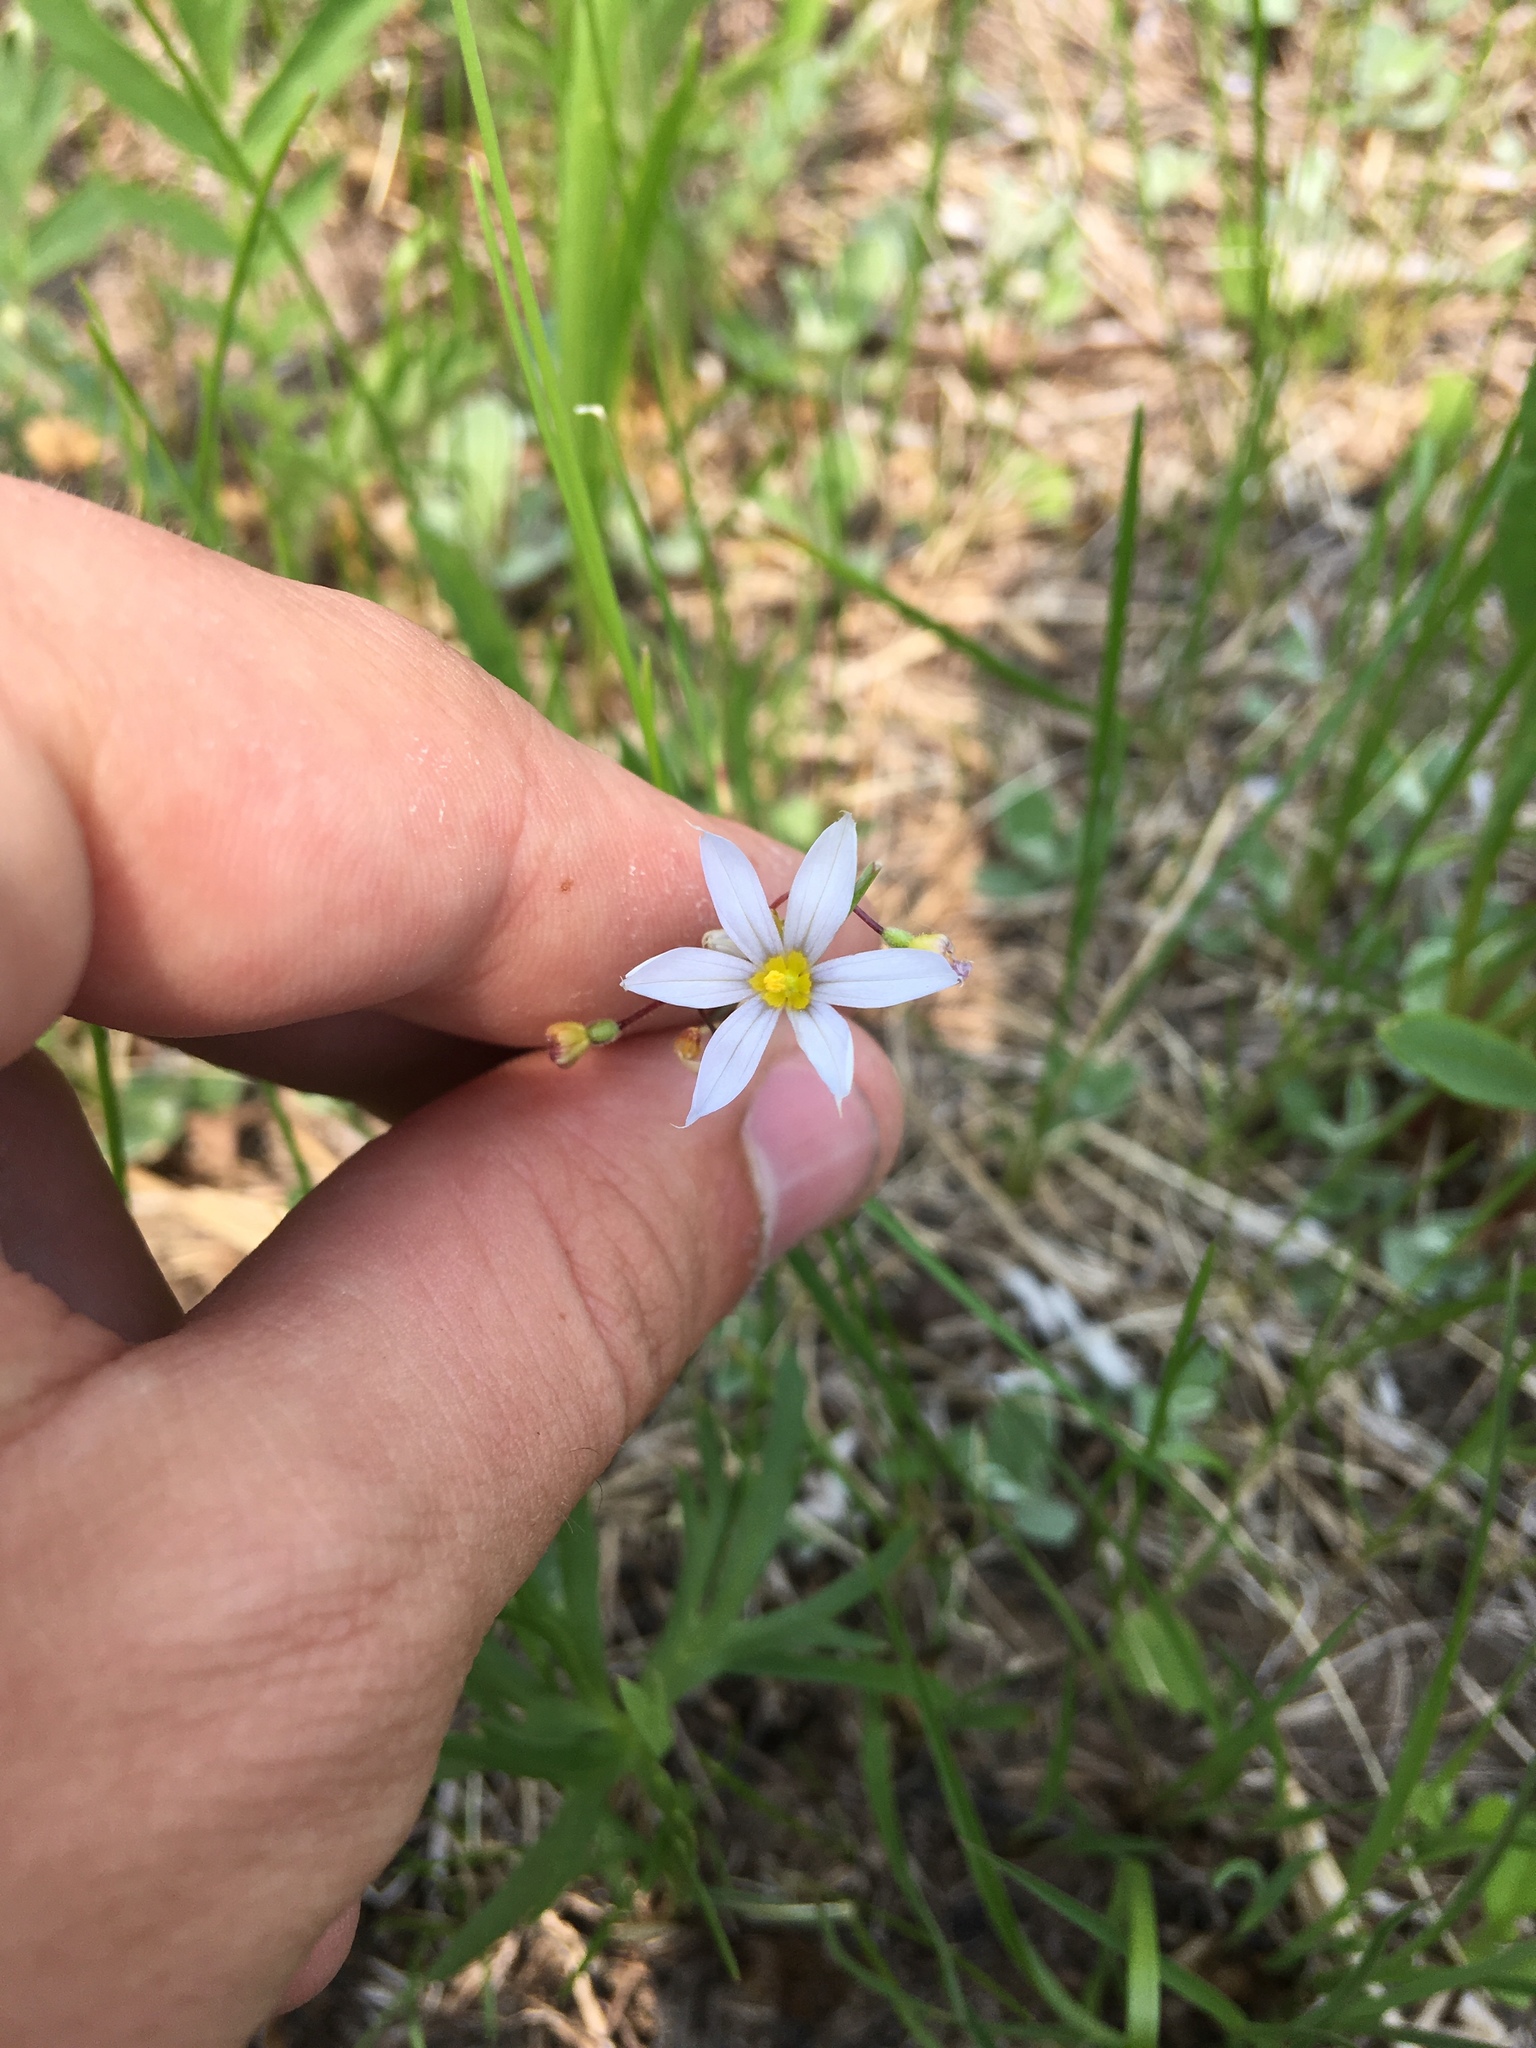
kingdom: Plantae
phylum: Tracheophyta
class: Liliopsida
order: Asparagales
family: Iridaceae
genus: Sisyrinchium
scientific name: Sisyrinchium campestre
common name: Prairie blue-eyed-grass
